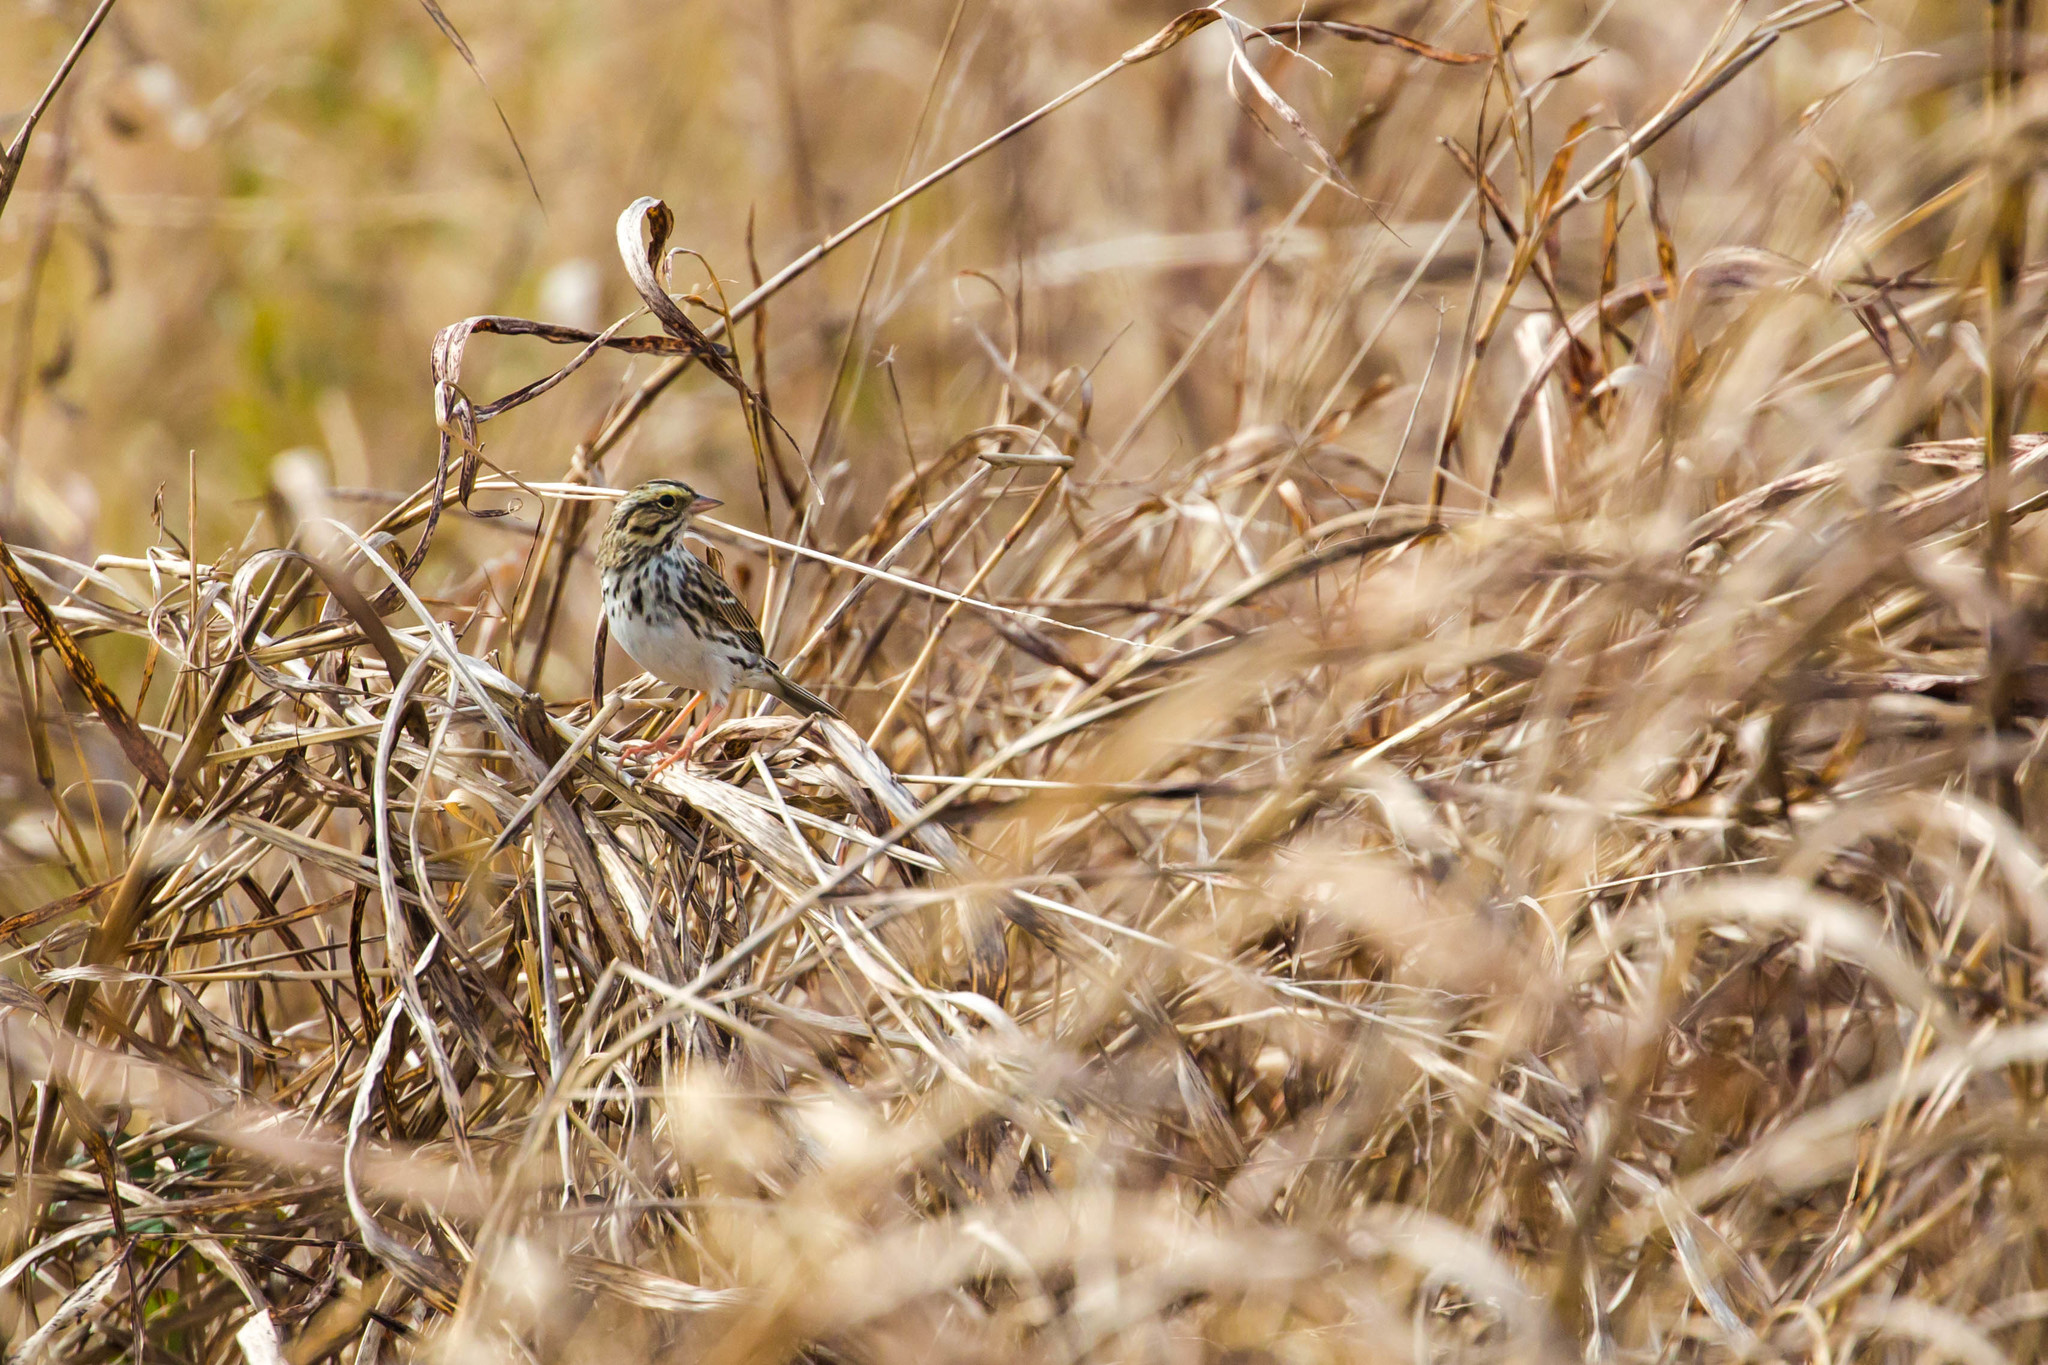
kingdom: Animalia
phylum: Chordata
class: Aves
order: Passeriformes
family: Passerellidae
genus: Passerculus
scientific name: Passerculus sandwichensis
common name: Savannah sparrow
